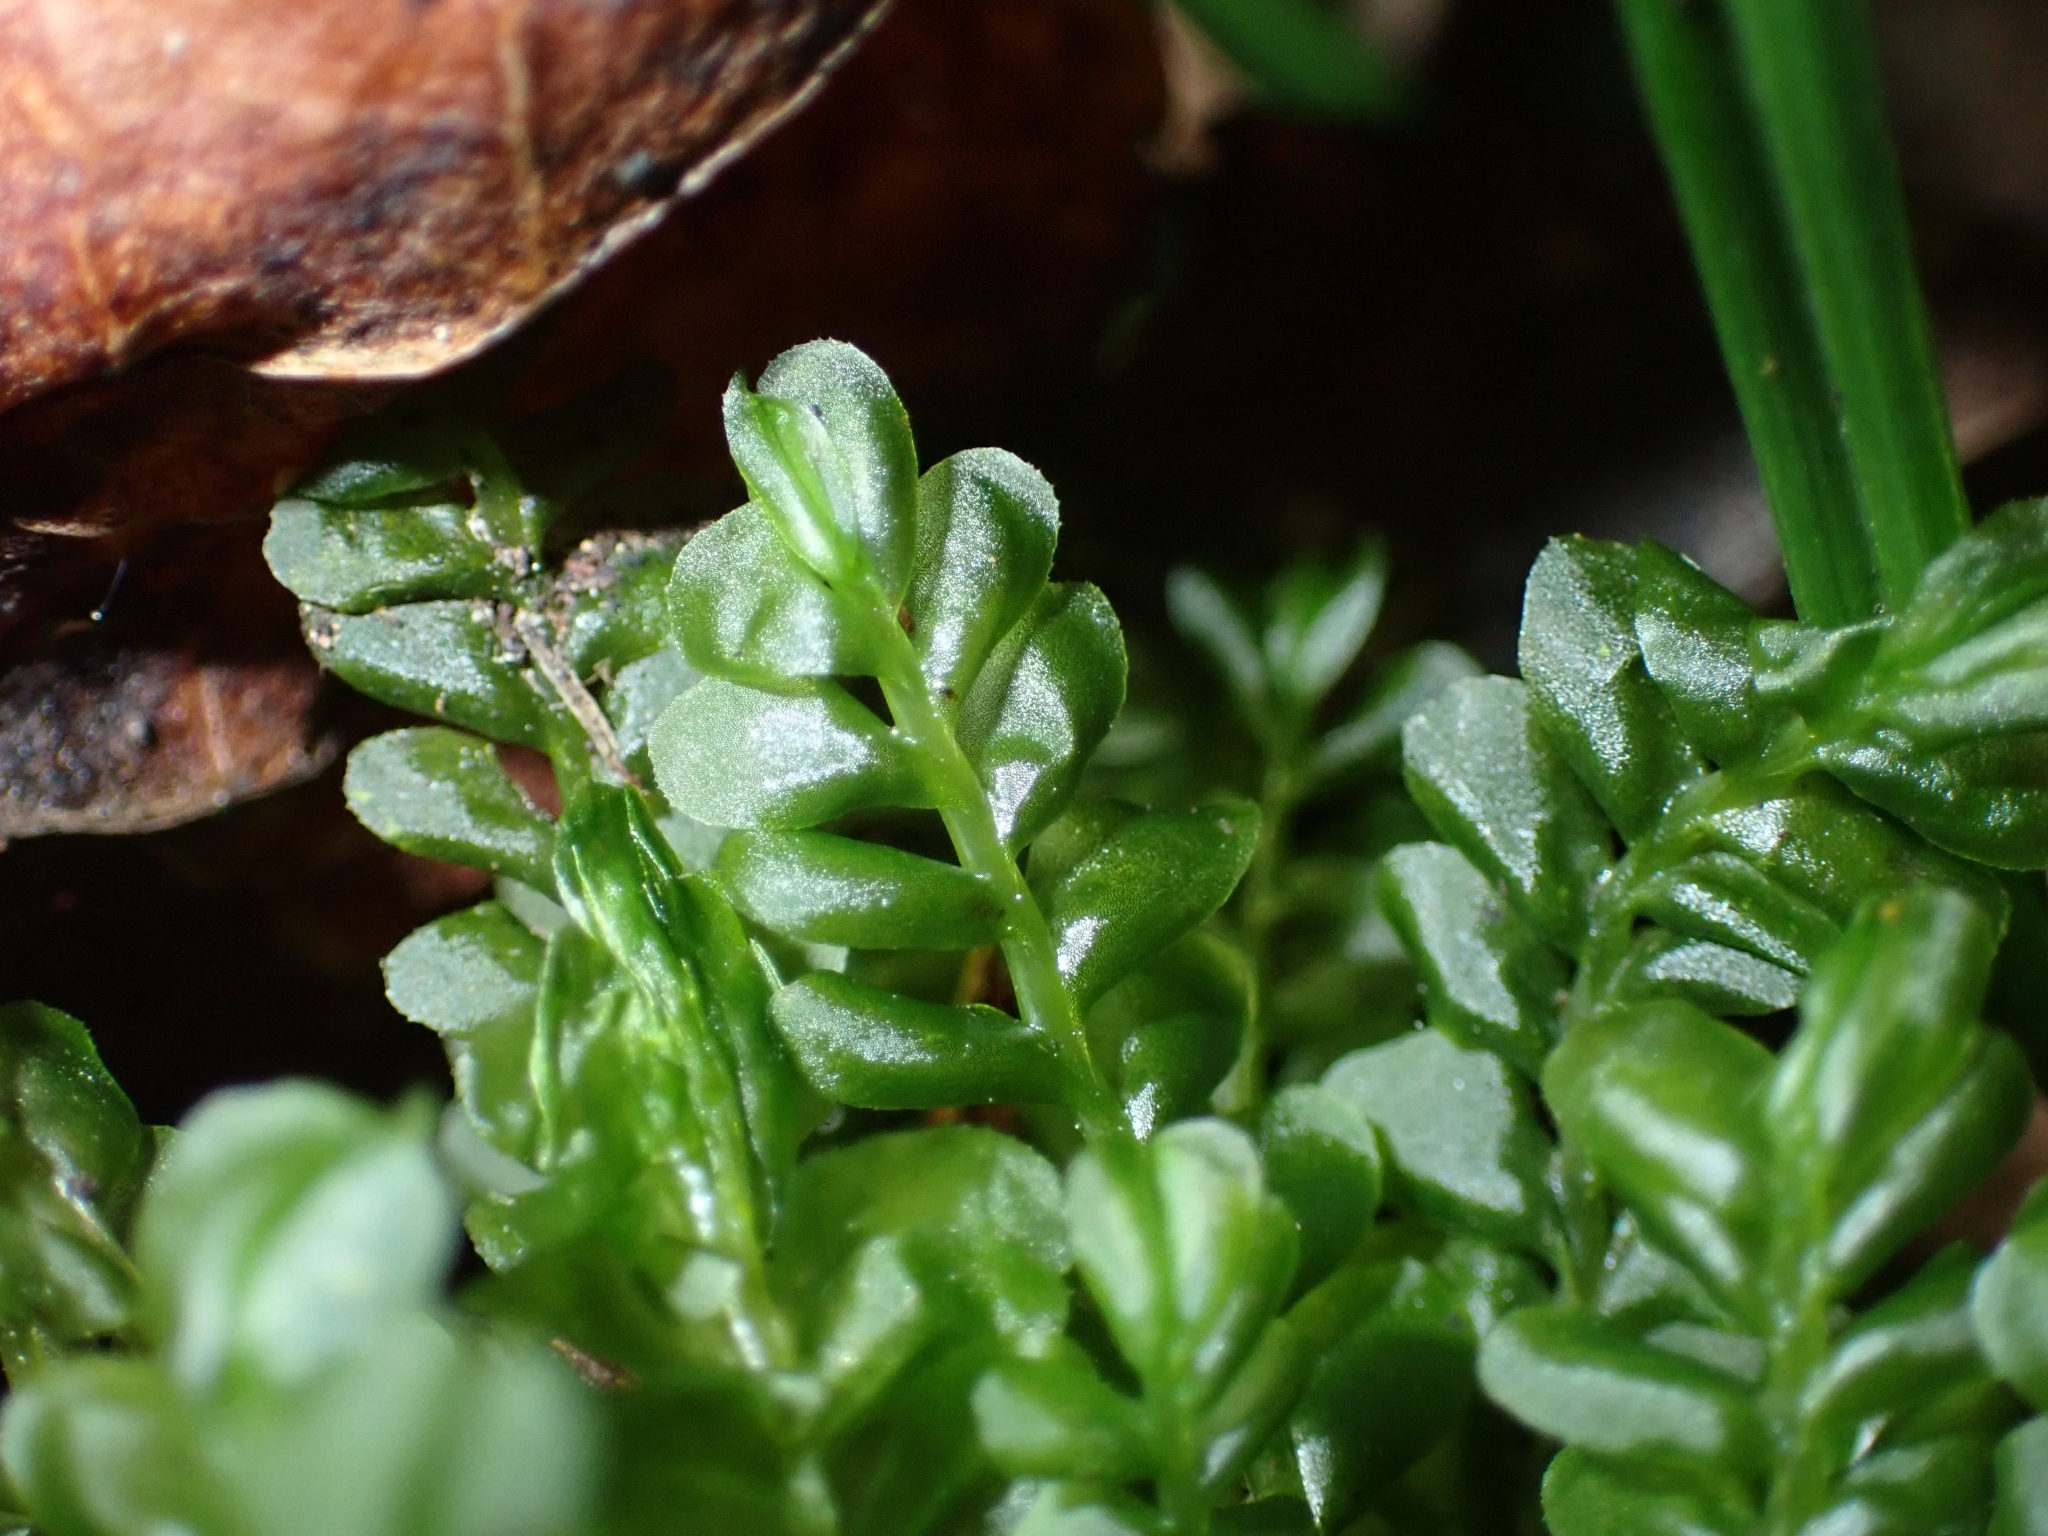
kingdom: Plantae
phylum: Marchantiophyta
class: Jungermanniopsida
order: Jungermanniales
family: Plagiochilaceae
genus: Plagiochila
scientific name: Plagiochila porelloides
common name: Lesser featherwort
